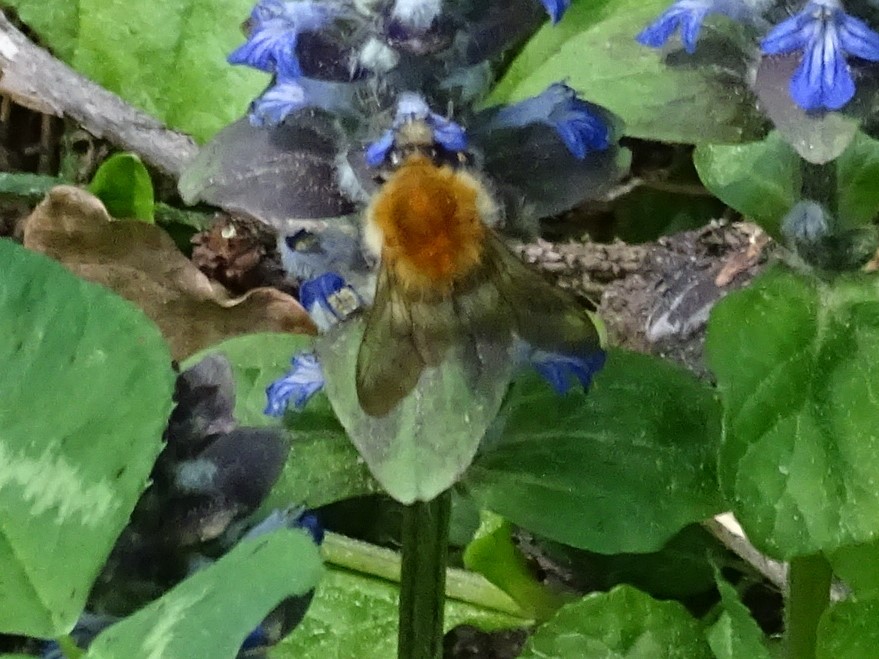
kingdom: Animalia
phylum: Arthropoda
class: Insecta
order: Hymenoptera
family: Apidae
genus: Bombus
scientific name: Bombus pascuorum
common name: Common carder bee
